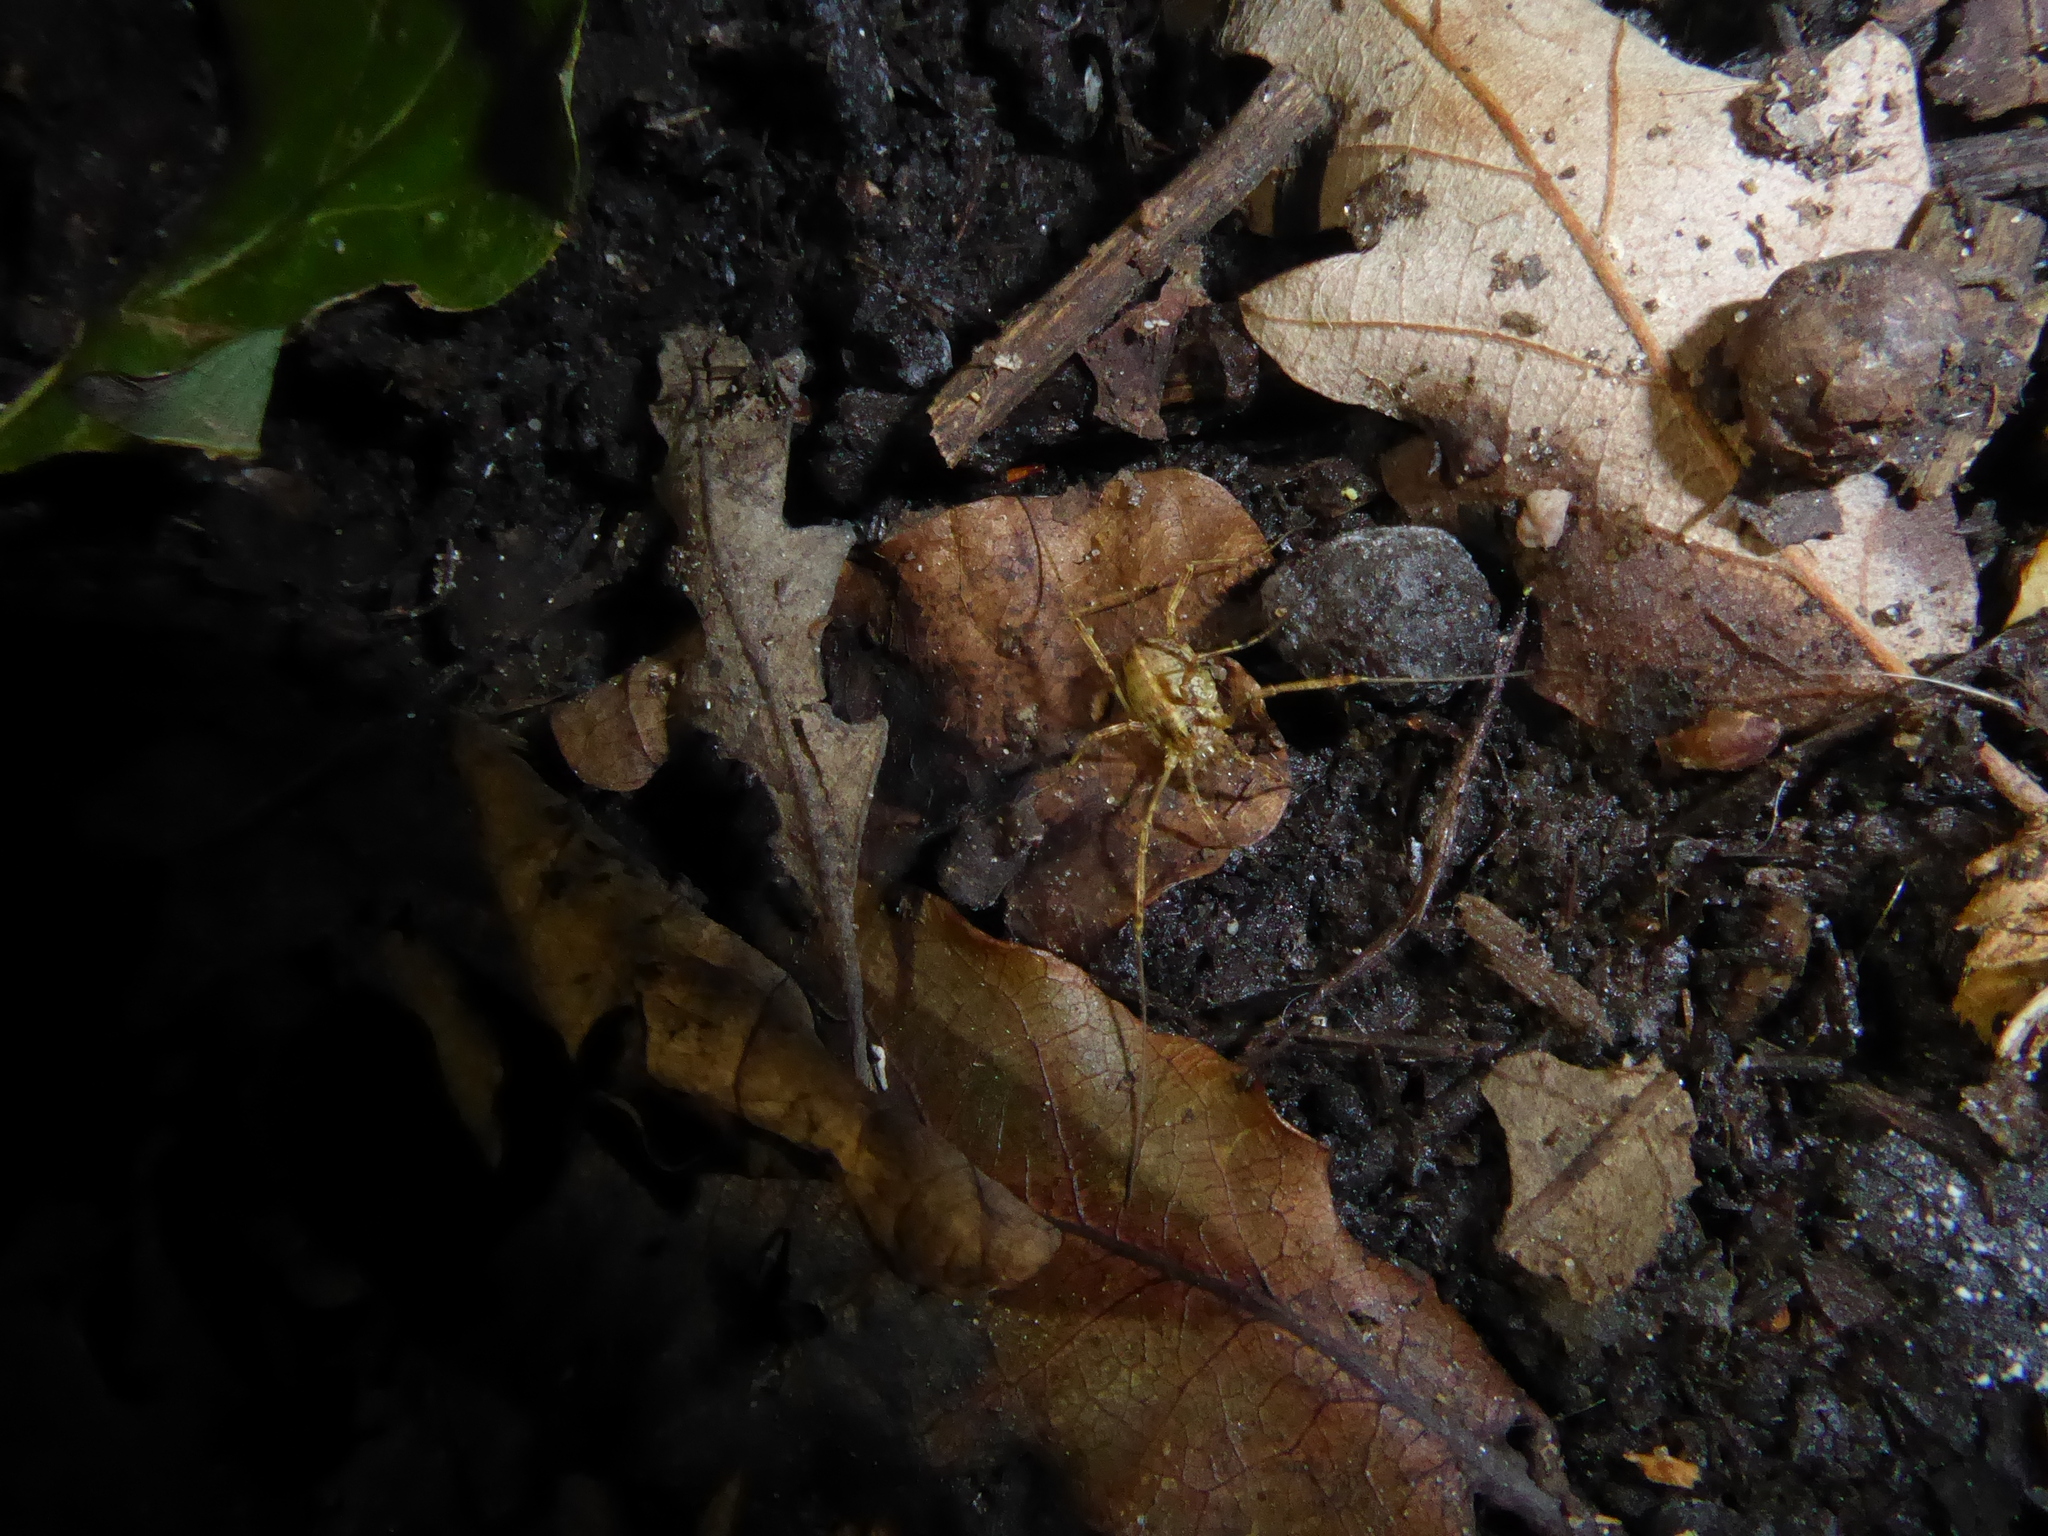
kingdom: Animalia
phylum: Arthropoda
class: Arachnida
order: Opiliones
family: Phalangiidae
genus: Paroligolophus
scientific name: Paroligolophus agrestis
